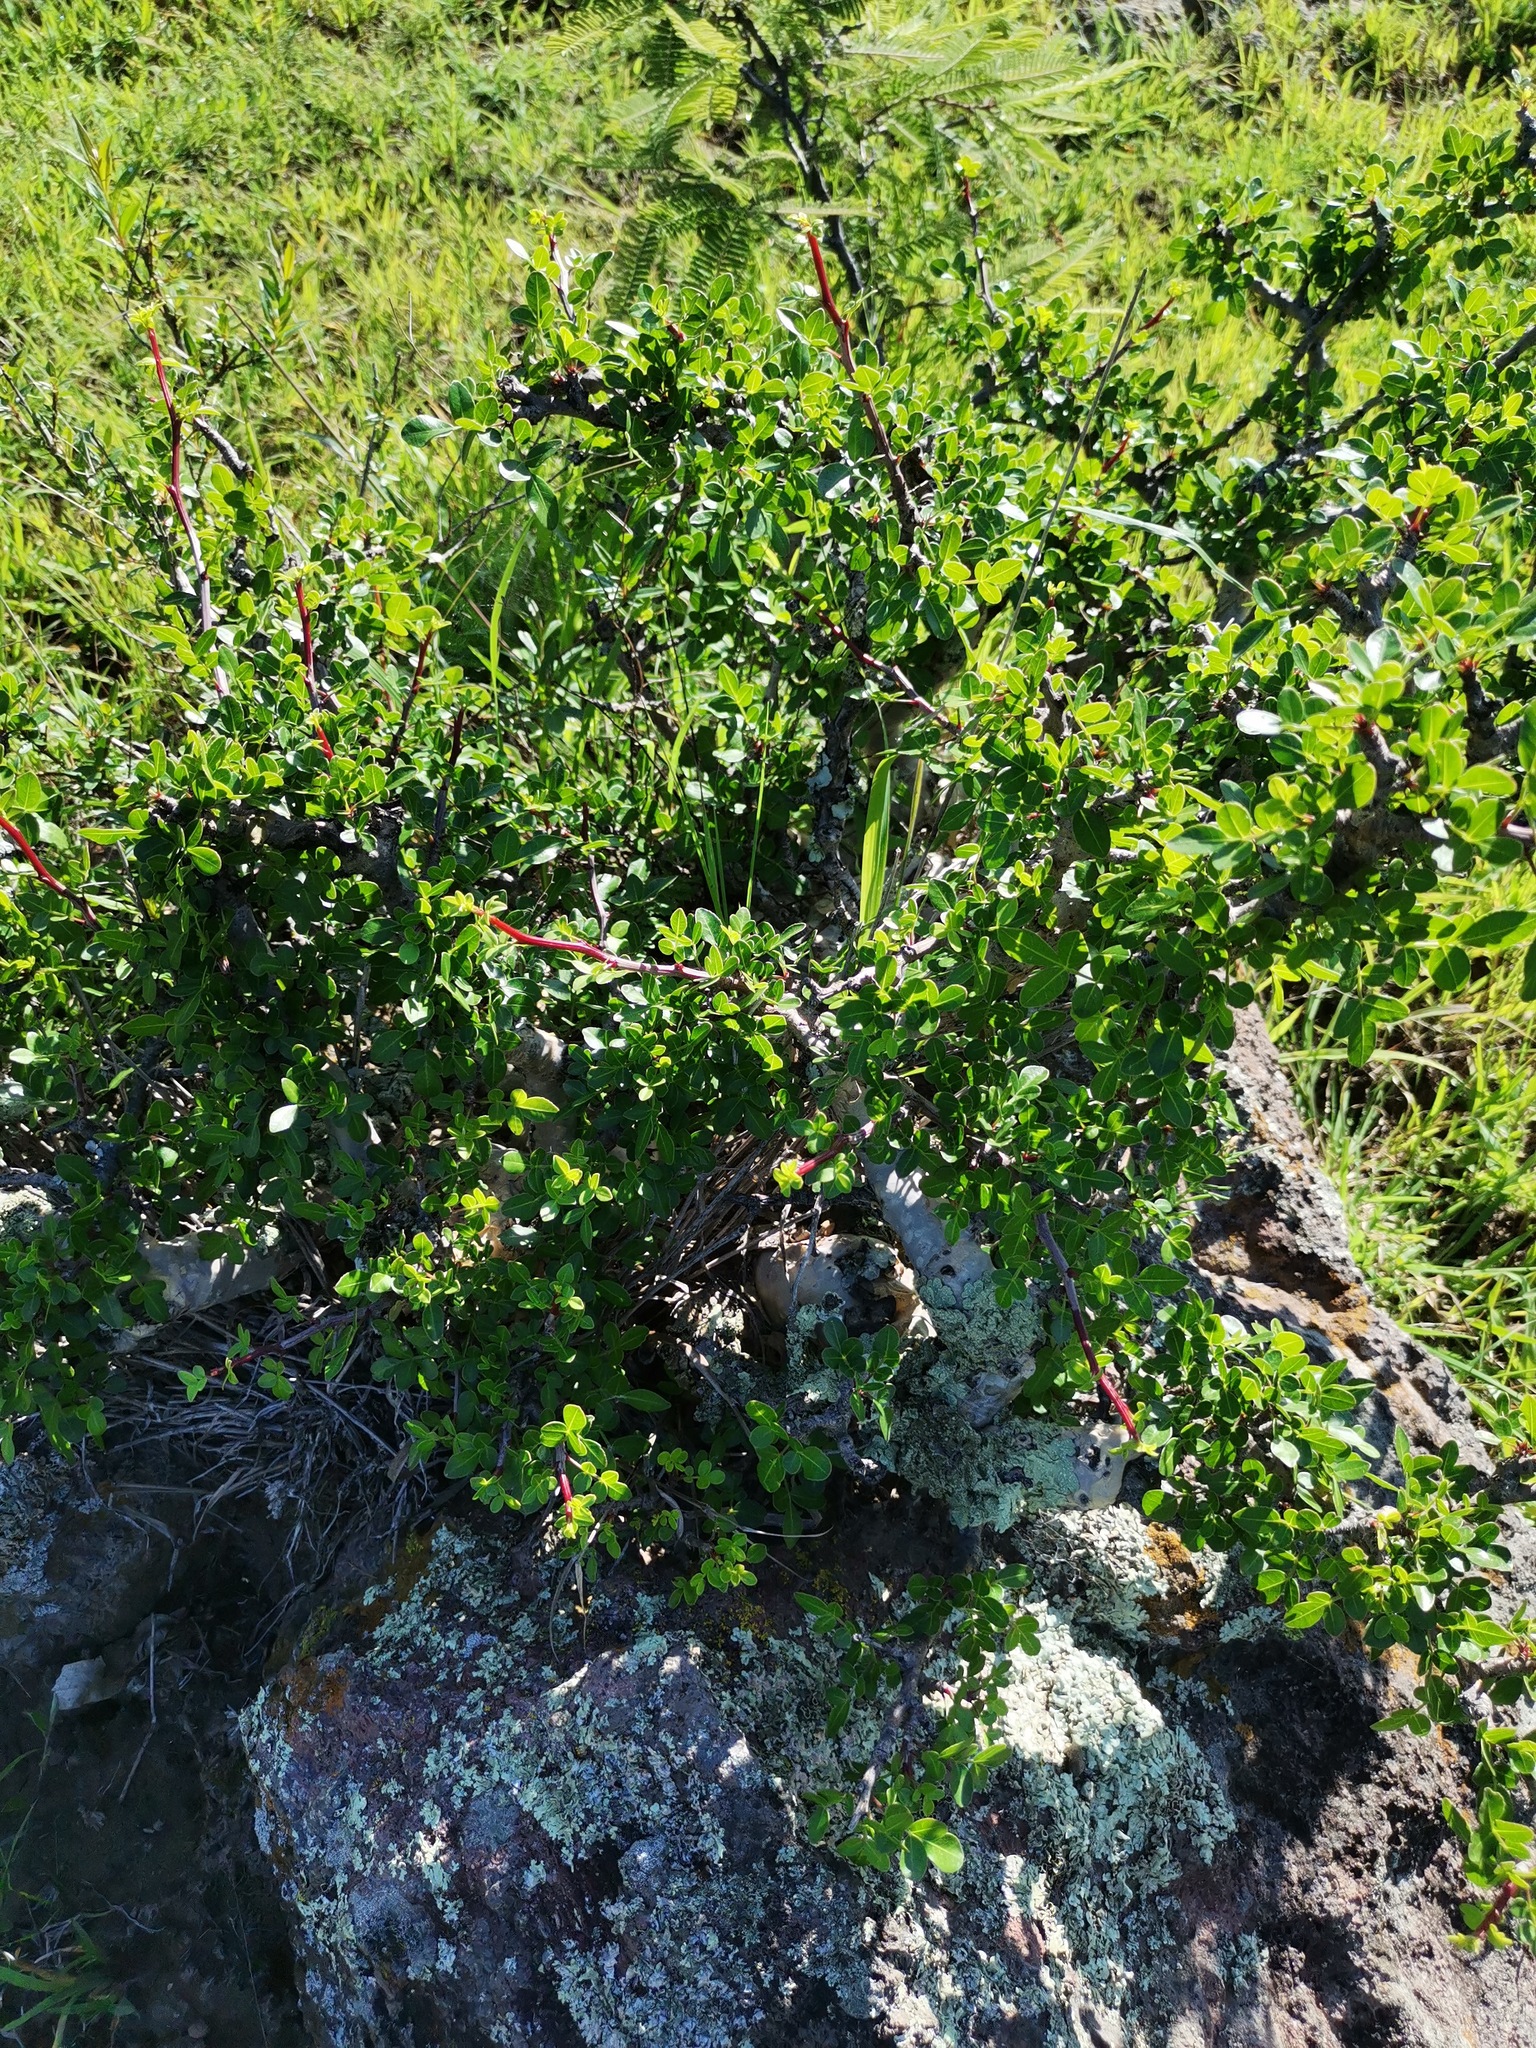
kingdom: Plantae
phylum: Tracheophyta
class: Magnoliopsida
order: Sapindales
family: Burseraceae
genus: Bursera
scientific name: Bursera fagaroides
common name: Elephant tree
